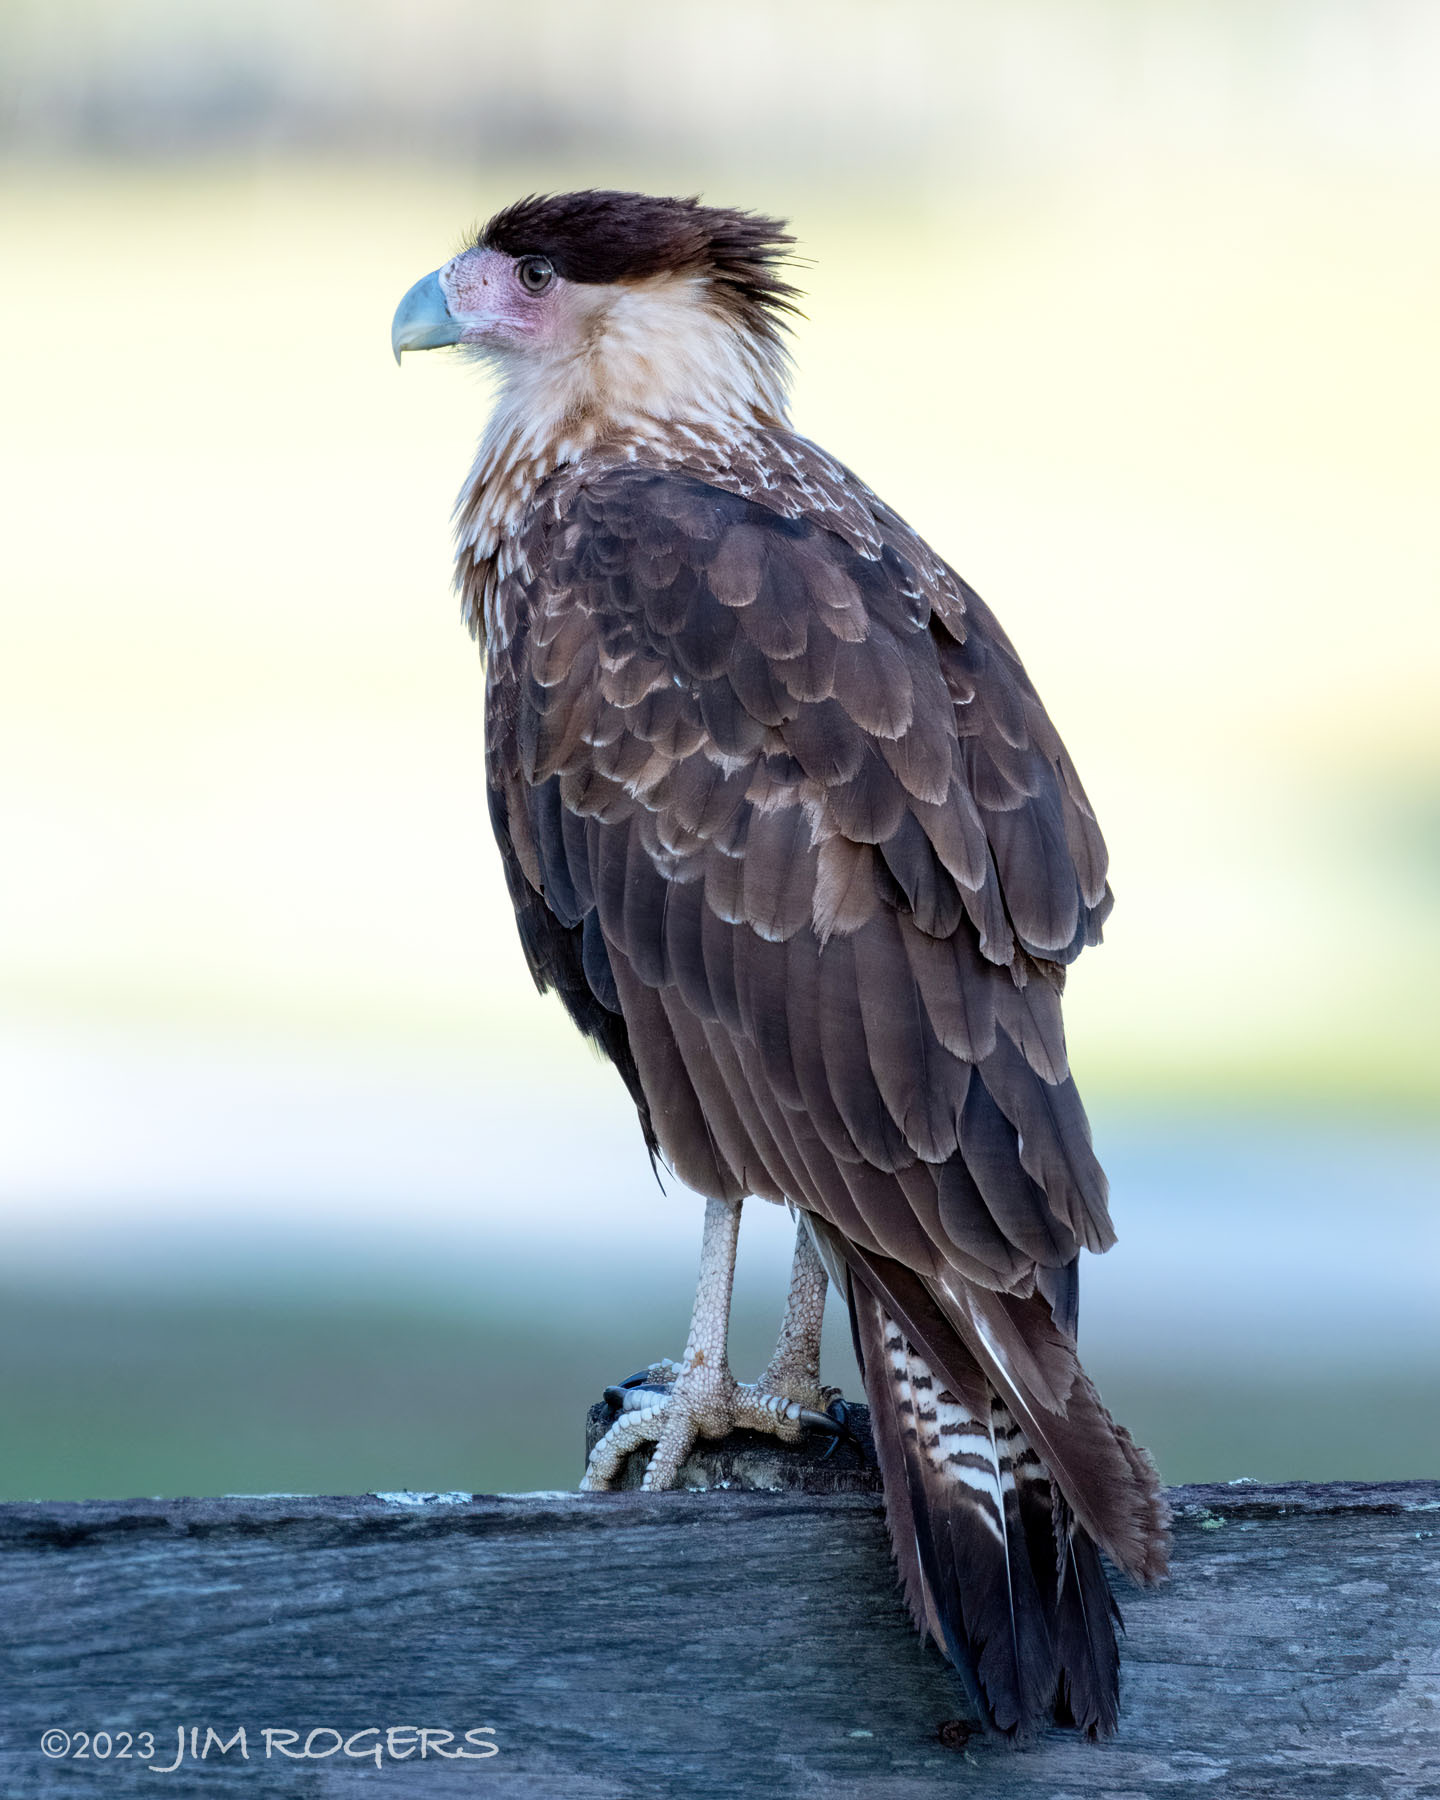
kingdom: Animalia
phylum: Chordata
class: Aves
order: Falconiformes
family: Falconidae
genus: Caracara
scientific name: Caracara plancus
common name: Southern caracara
